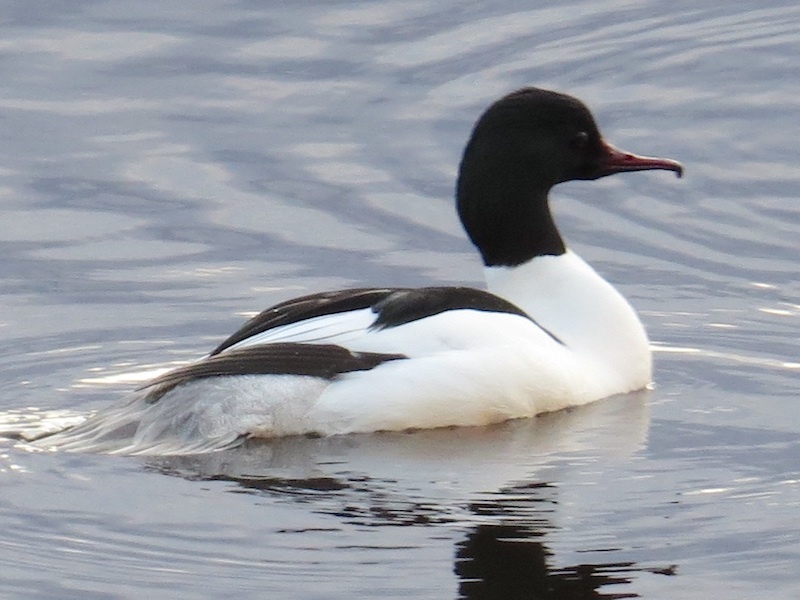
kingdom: Animalia
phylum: Chordata
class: Aves
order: Anseriformes
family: Anatidae
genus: Mergus
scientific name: Mergus merganser
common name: Common merganser
